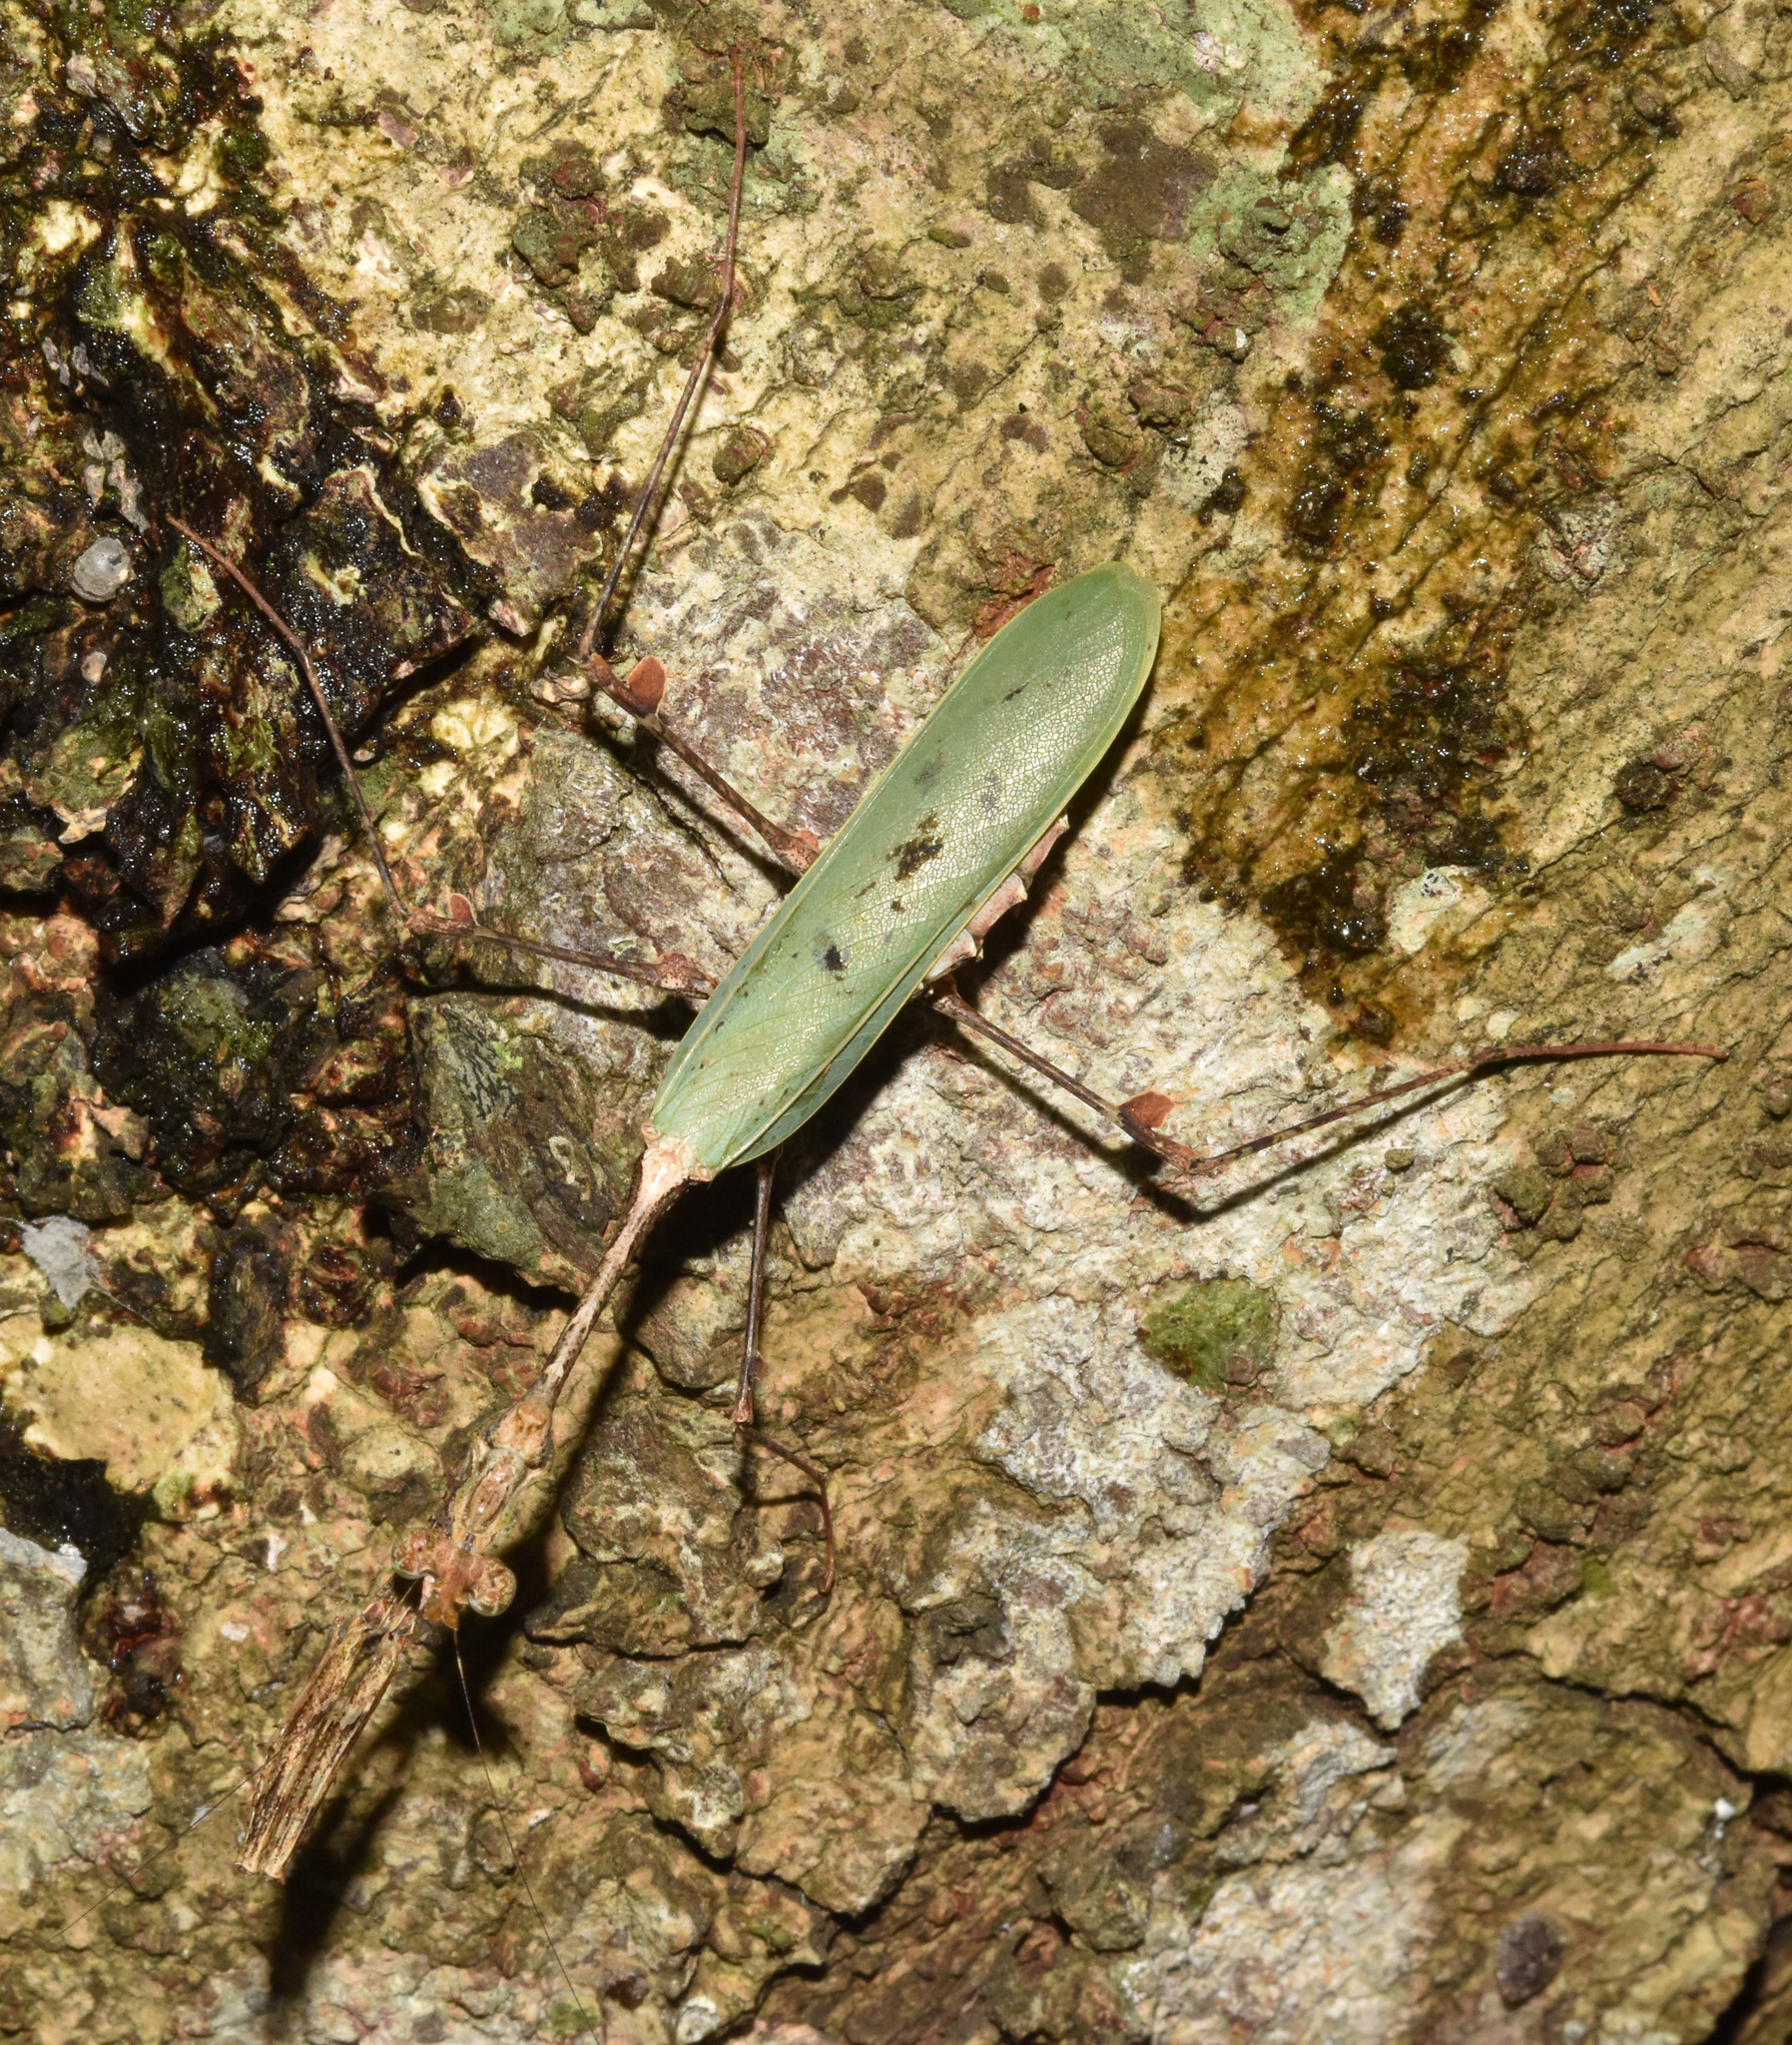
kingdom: Animalia
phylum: Arthropoda
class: Insecta
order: Mantodea
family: Hymenopodidae
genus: Sibylla
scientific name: Sibylla pretiosa
